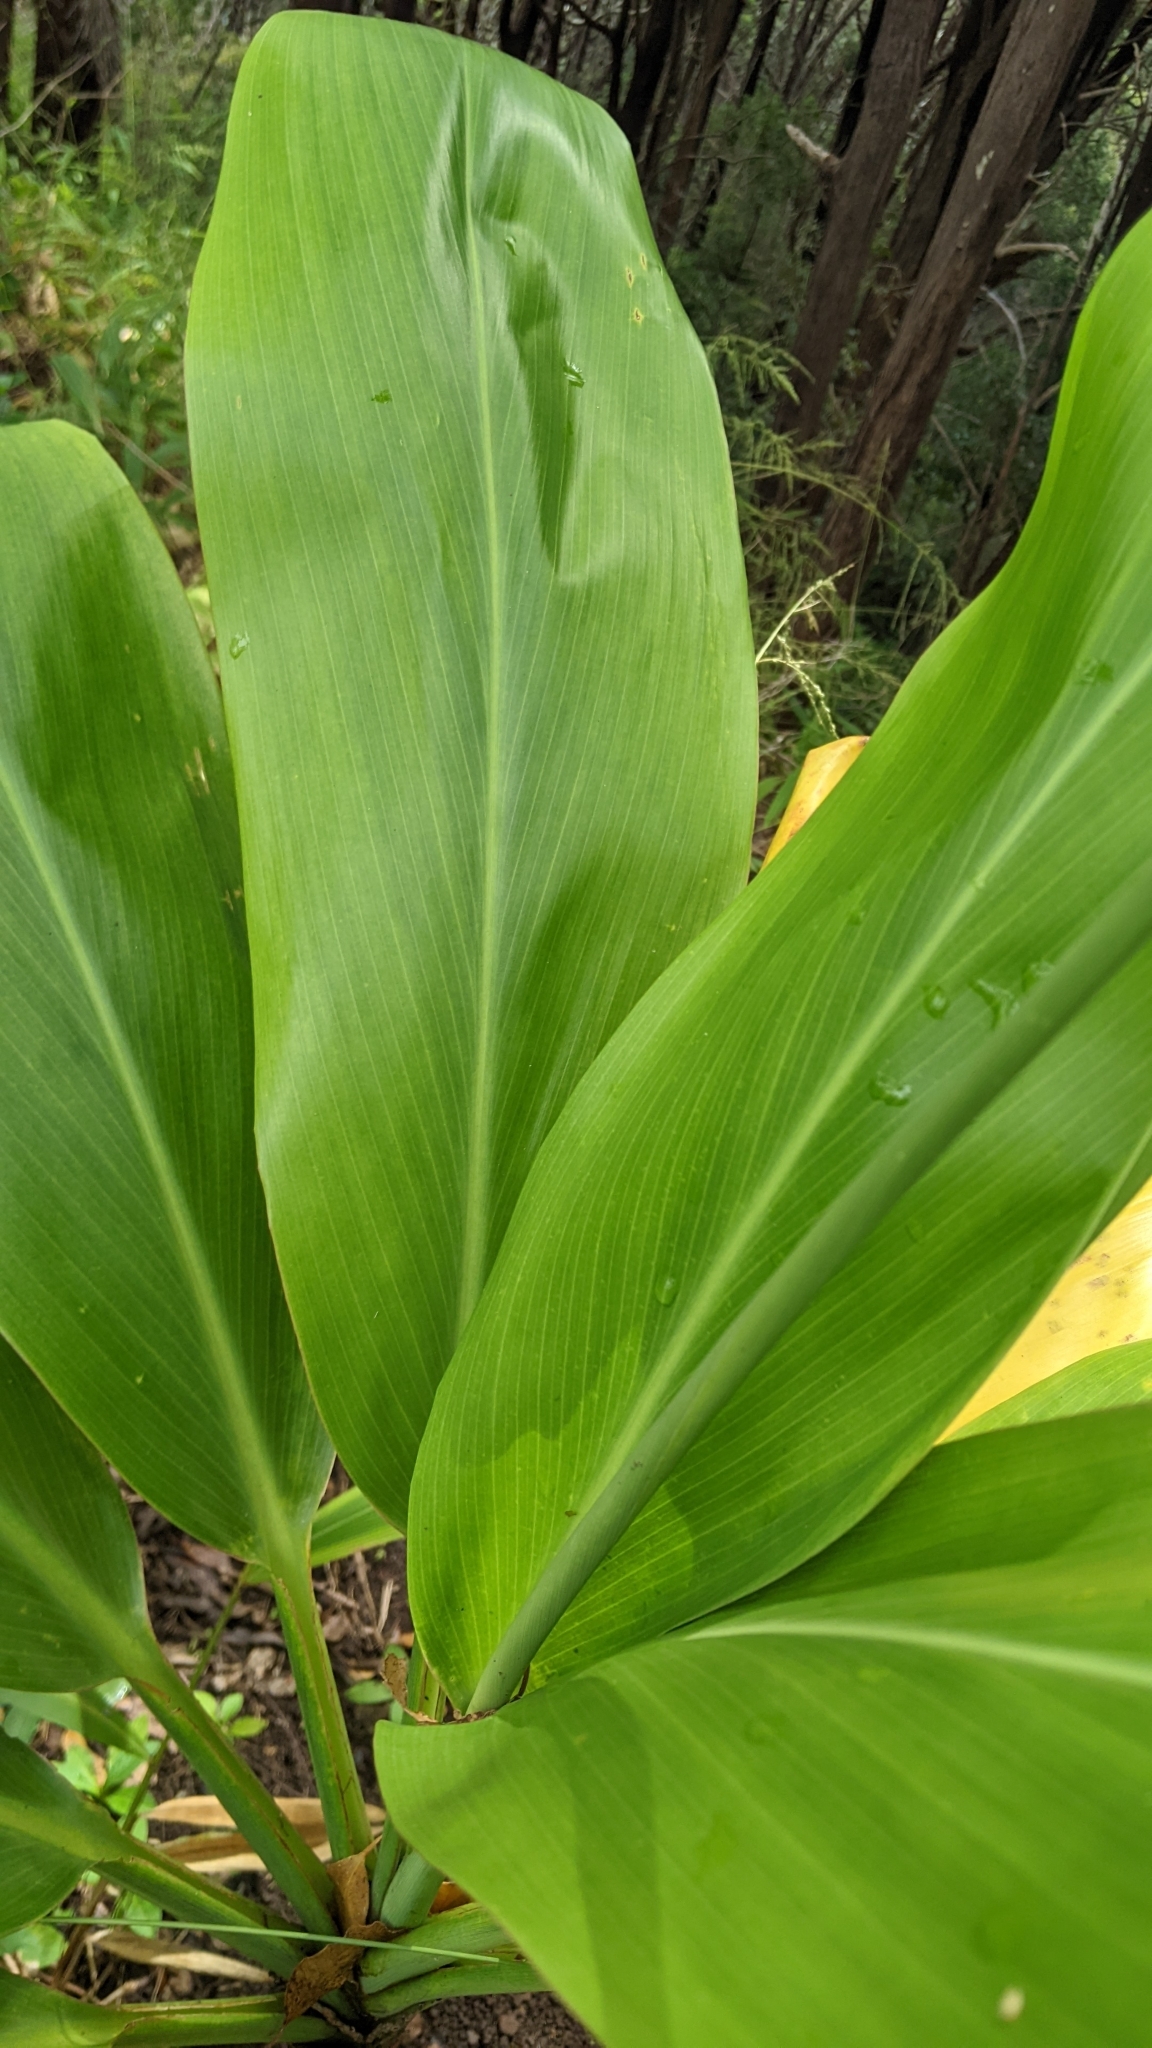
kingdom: Plantae
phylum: Tracheophyta
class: Liliopsida
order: Asparagales
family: Asparagaceae
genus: Cordyline
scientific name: Cordyline fruticosa
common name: Good-luck-plant
